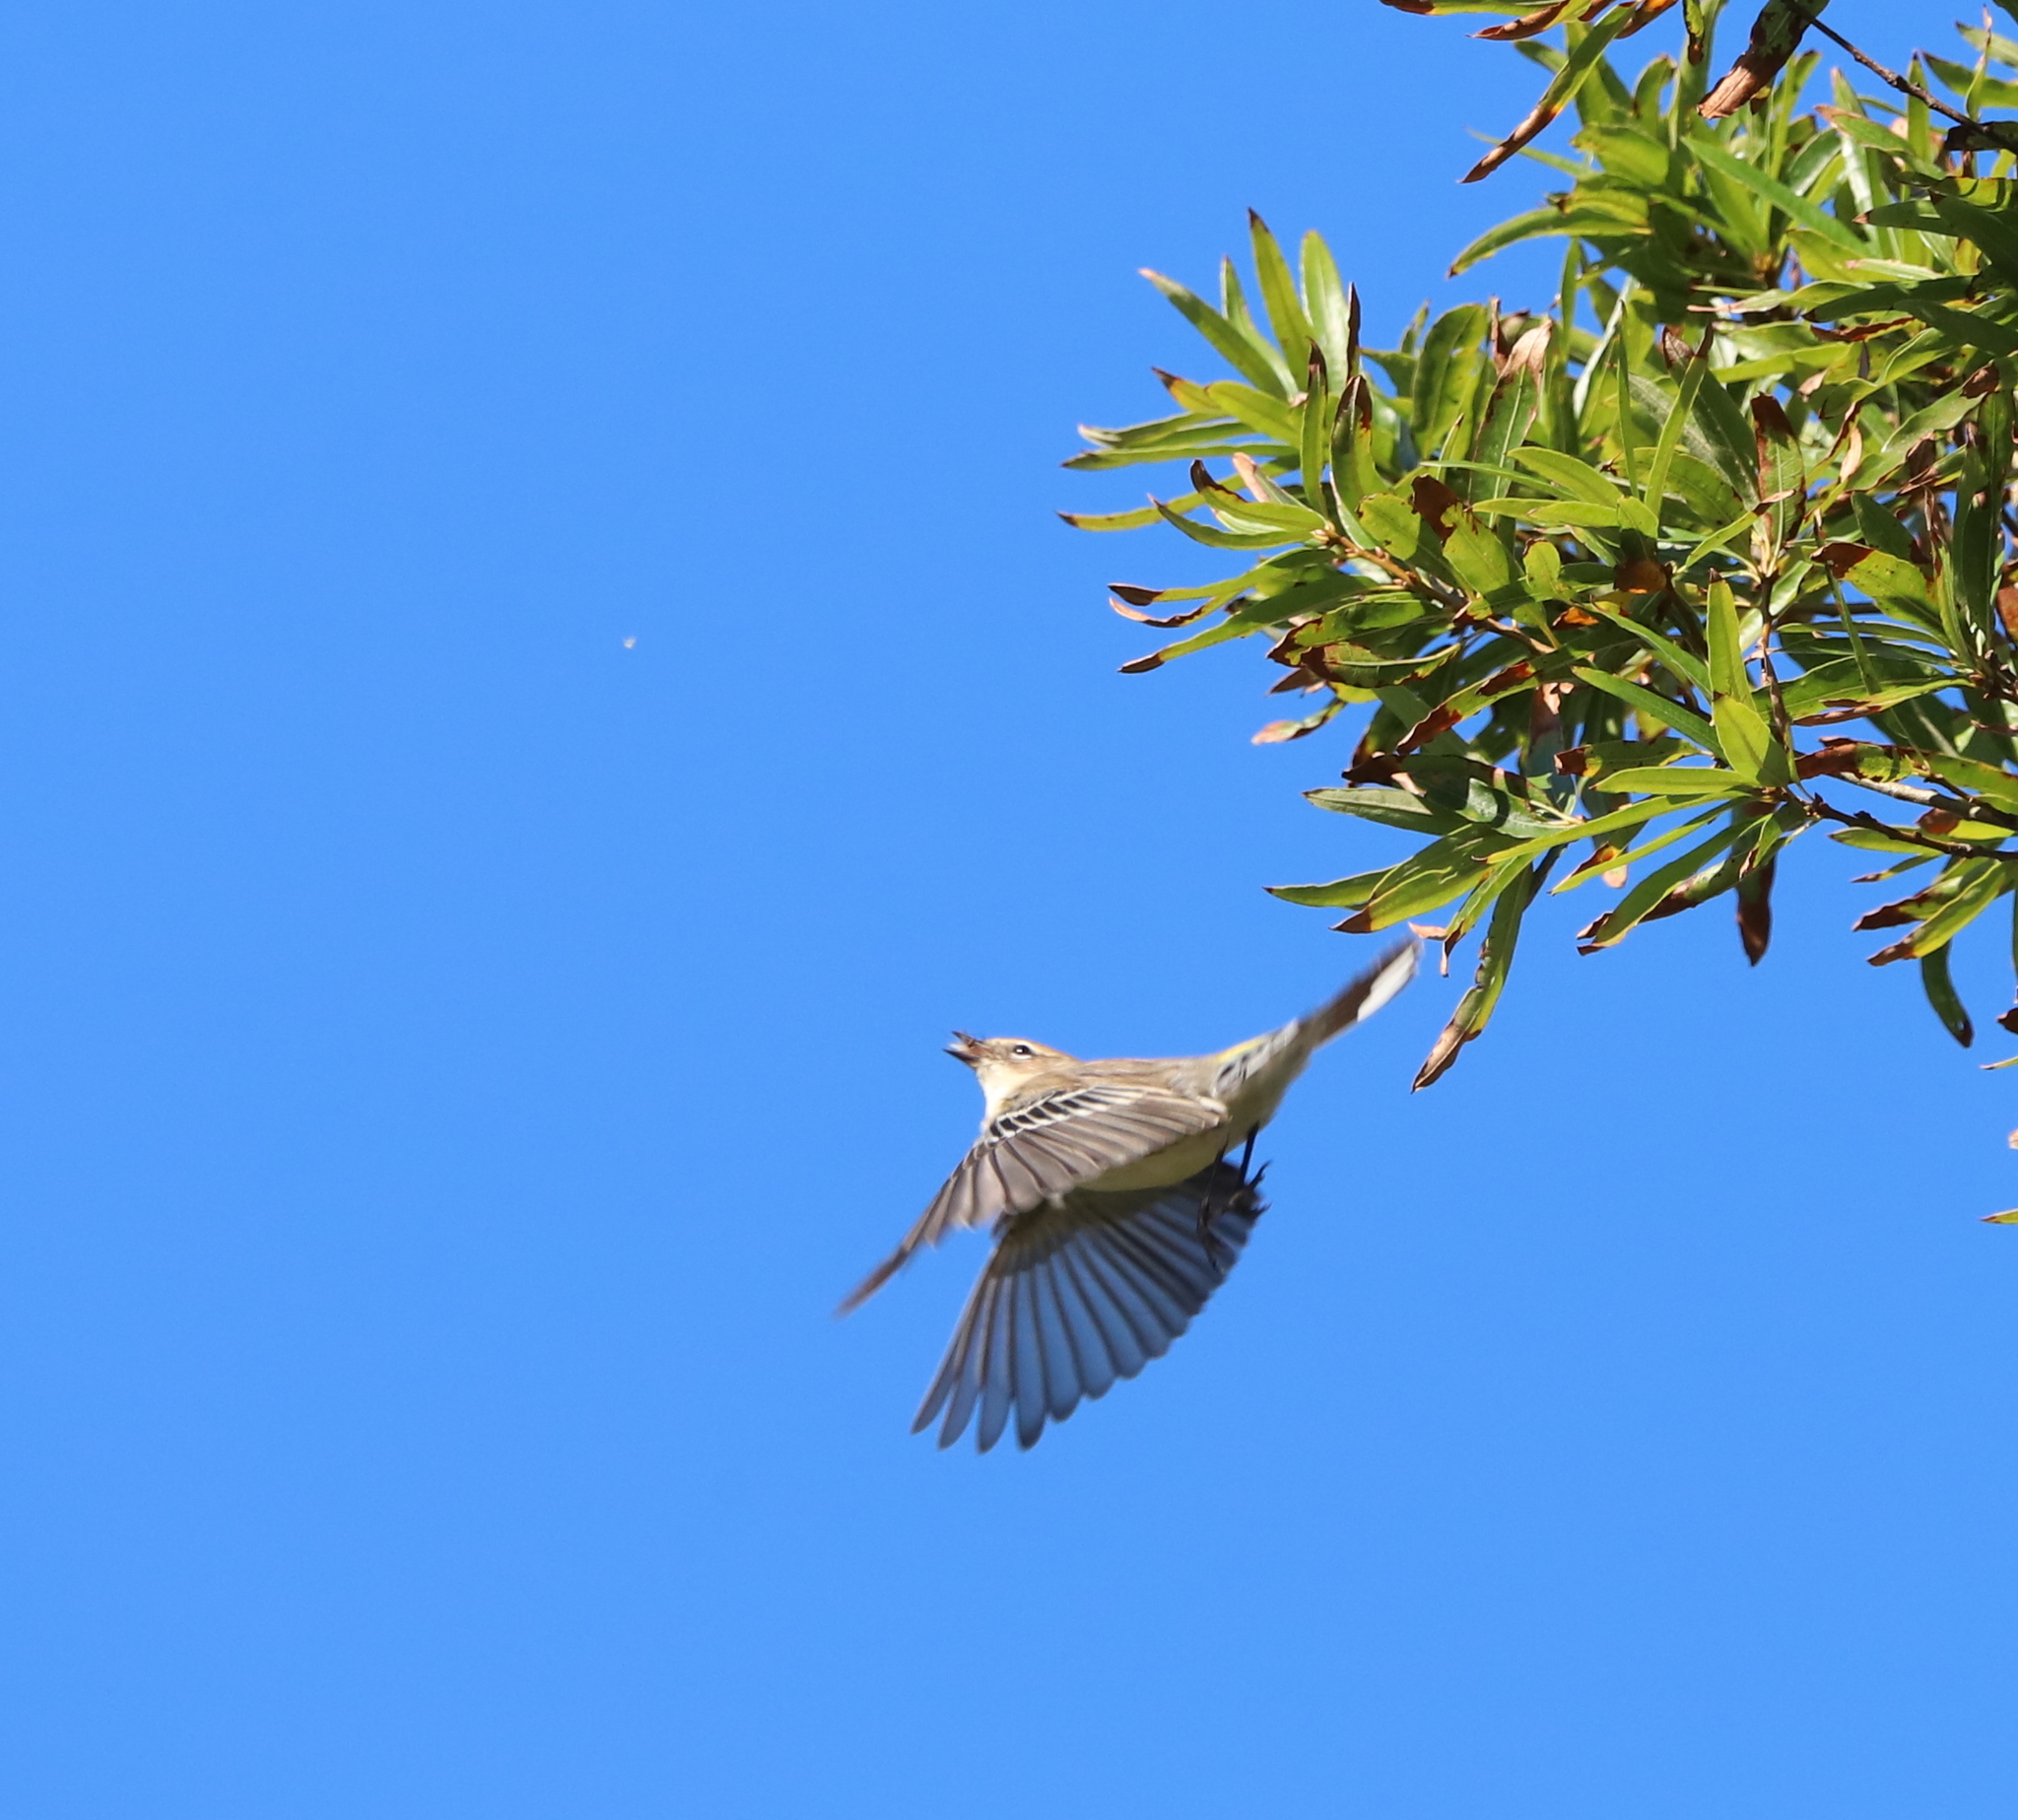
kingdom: Animalia
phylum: Chordata
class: Aves
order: Passeriformes
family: Parulidae
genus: Setophaga
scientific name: Setophaga coronata
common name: Myrtle warbler
